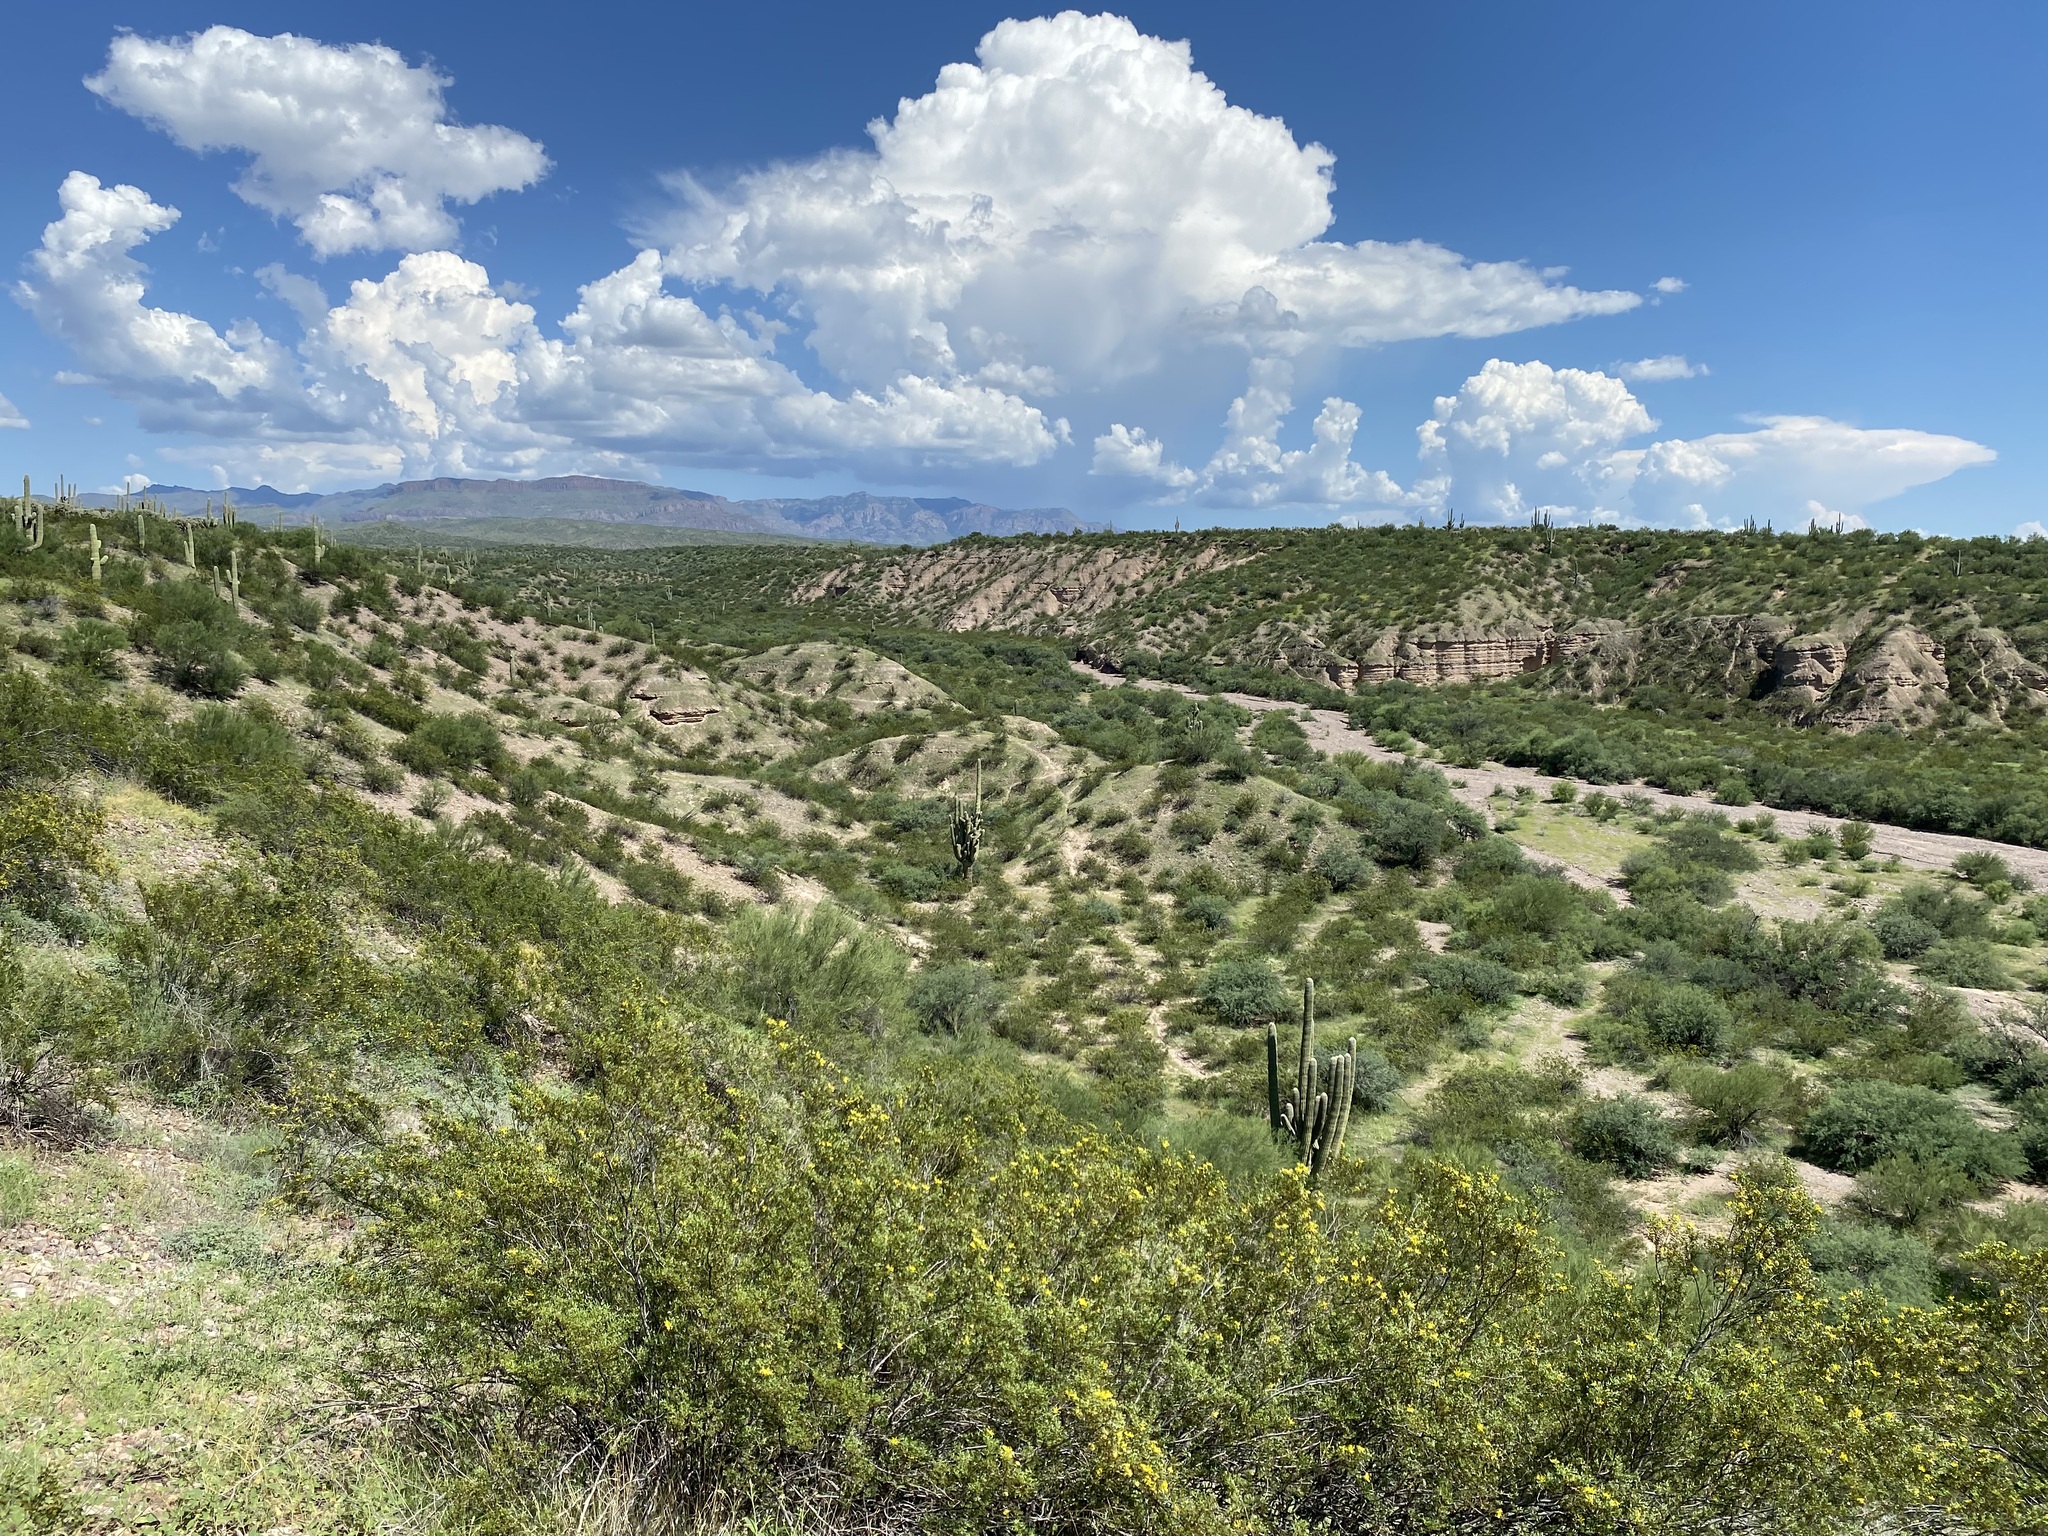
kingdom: Plantae
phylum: Tracheophyta
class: Magnoliopsida
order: Zygophyllales
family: Zygophyllaceae
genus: Larrea
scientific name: Larrea tridentata
